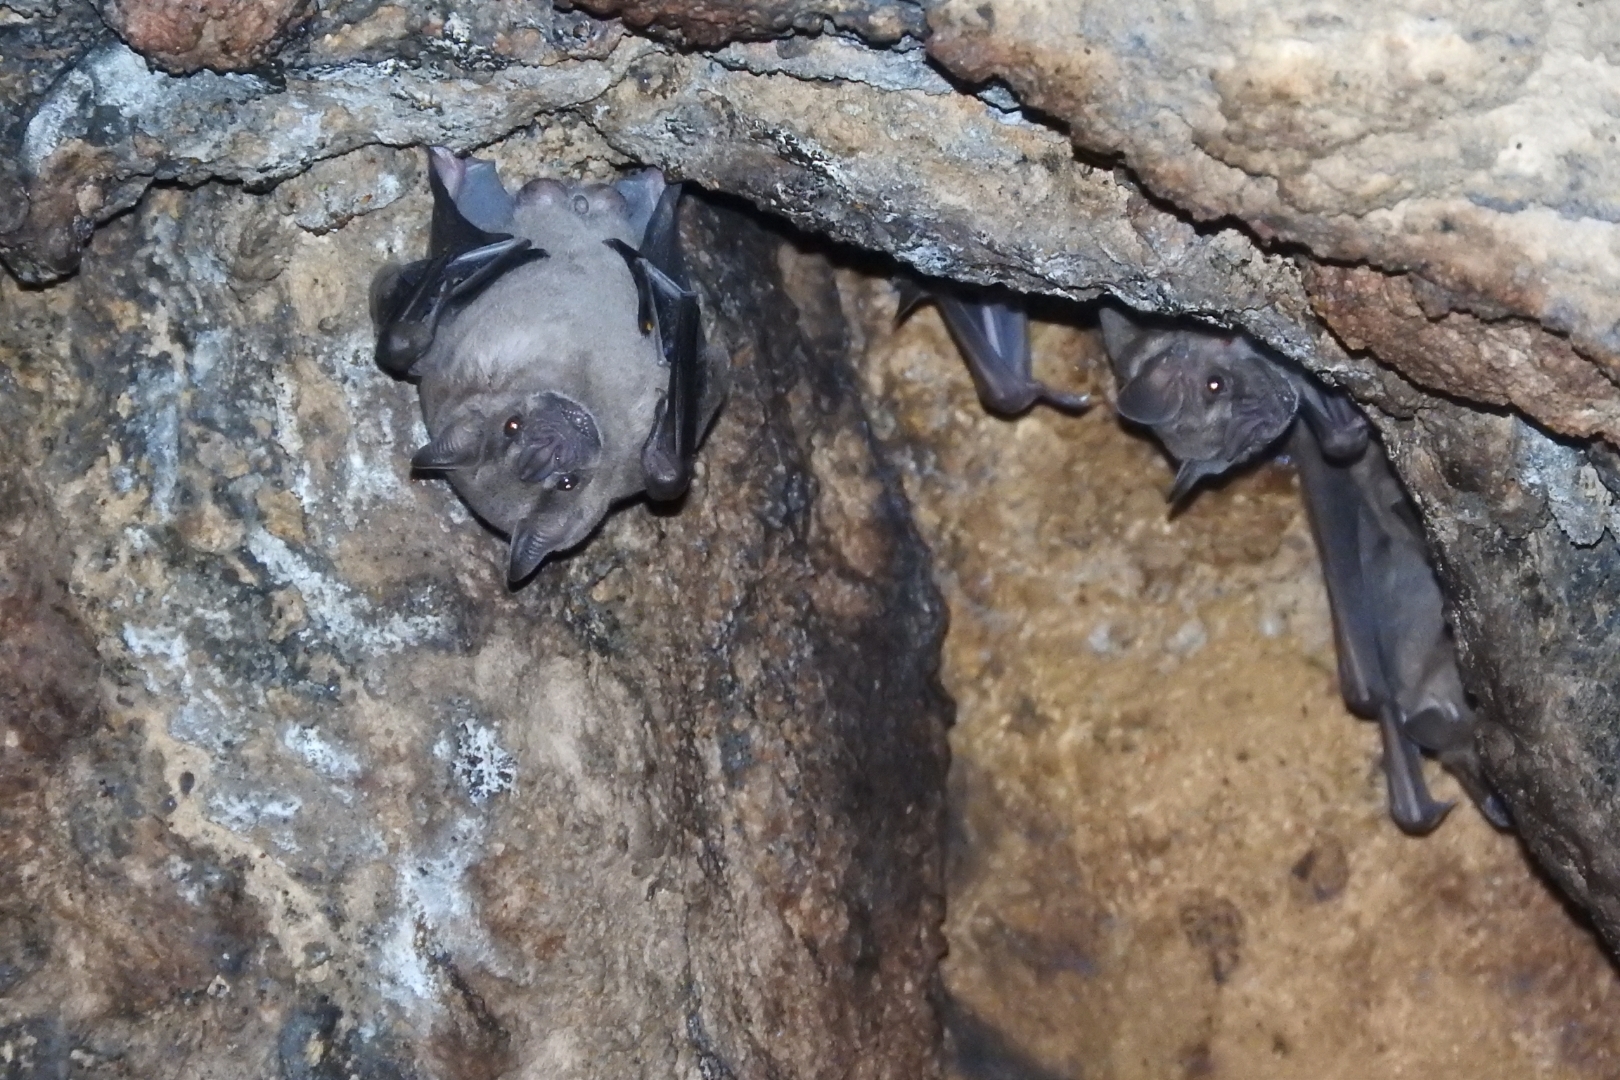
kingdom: Animalia
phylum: Chordata
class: Mammalia
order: Chiroptera
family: Phyllostomidae
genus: Artibeus
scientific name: Artibeus jamaicensis
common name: Jamaican fruit-eating bat
